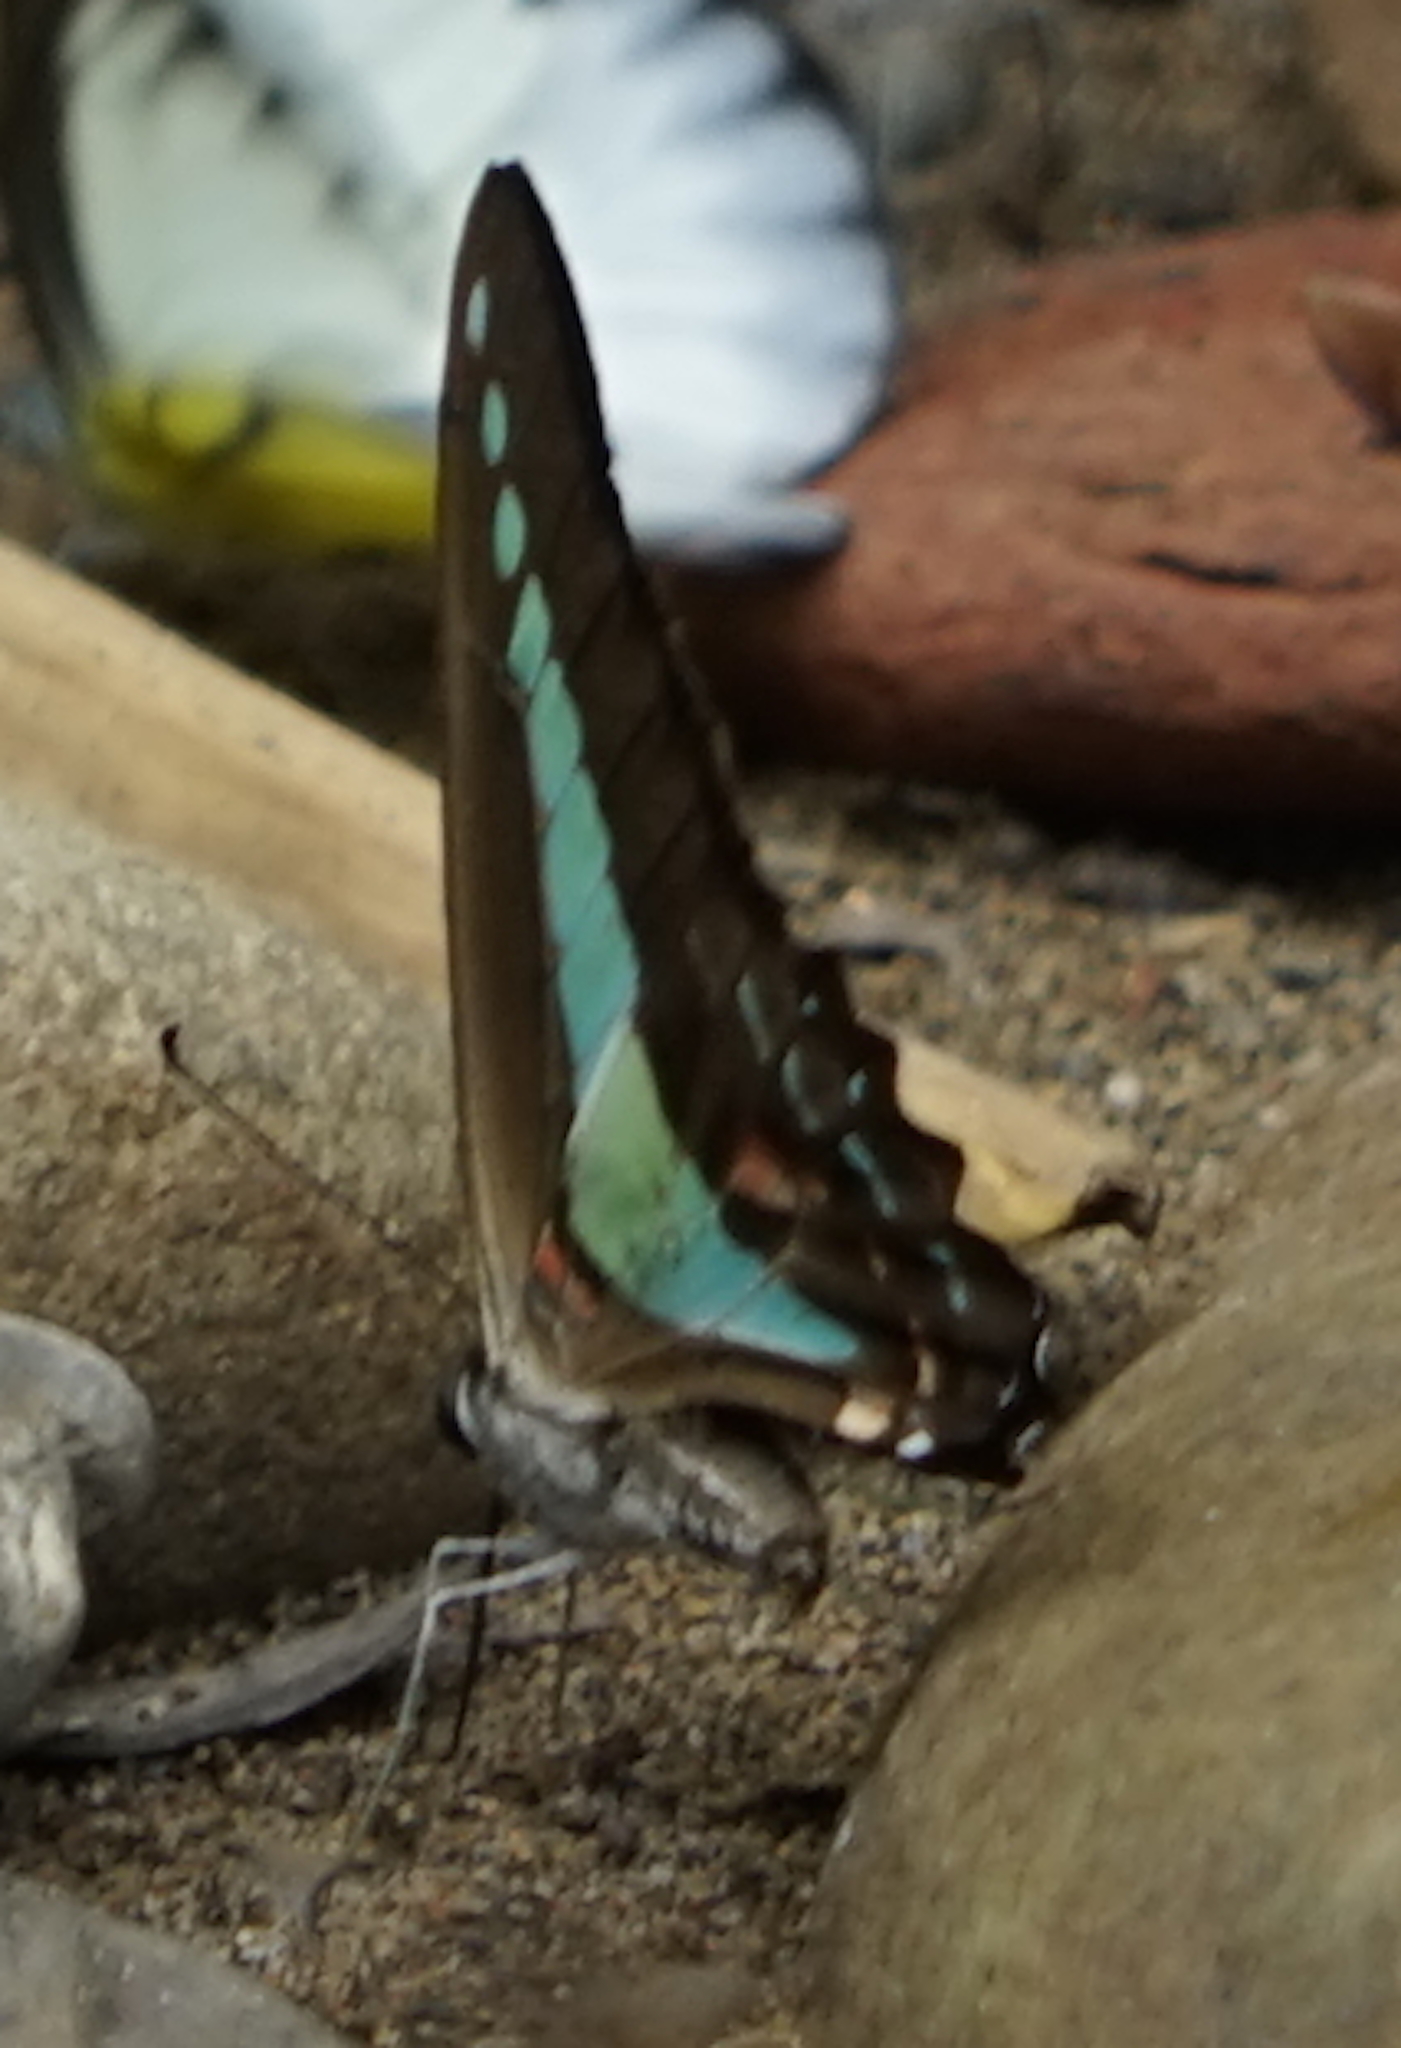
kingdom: Fungi
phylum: Ascomycota
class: Sordariomycetes
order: Microascales
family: Microascaceae
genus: Graphium
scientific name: Graphium sarpedon
